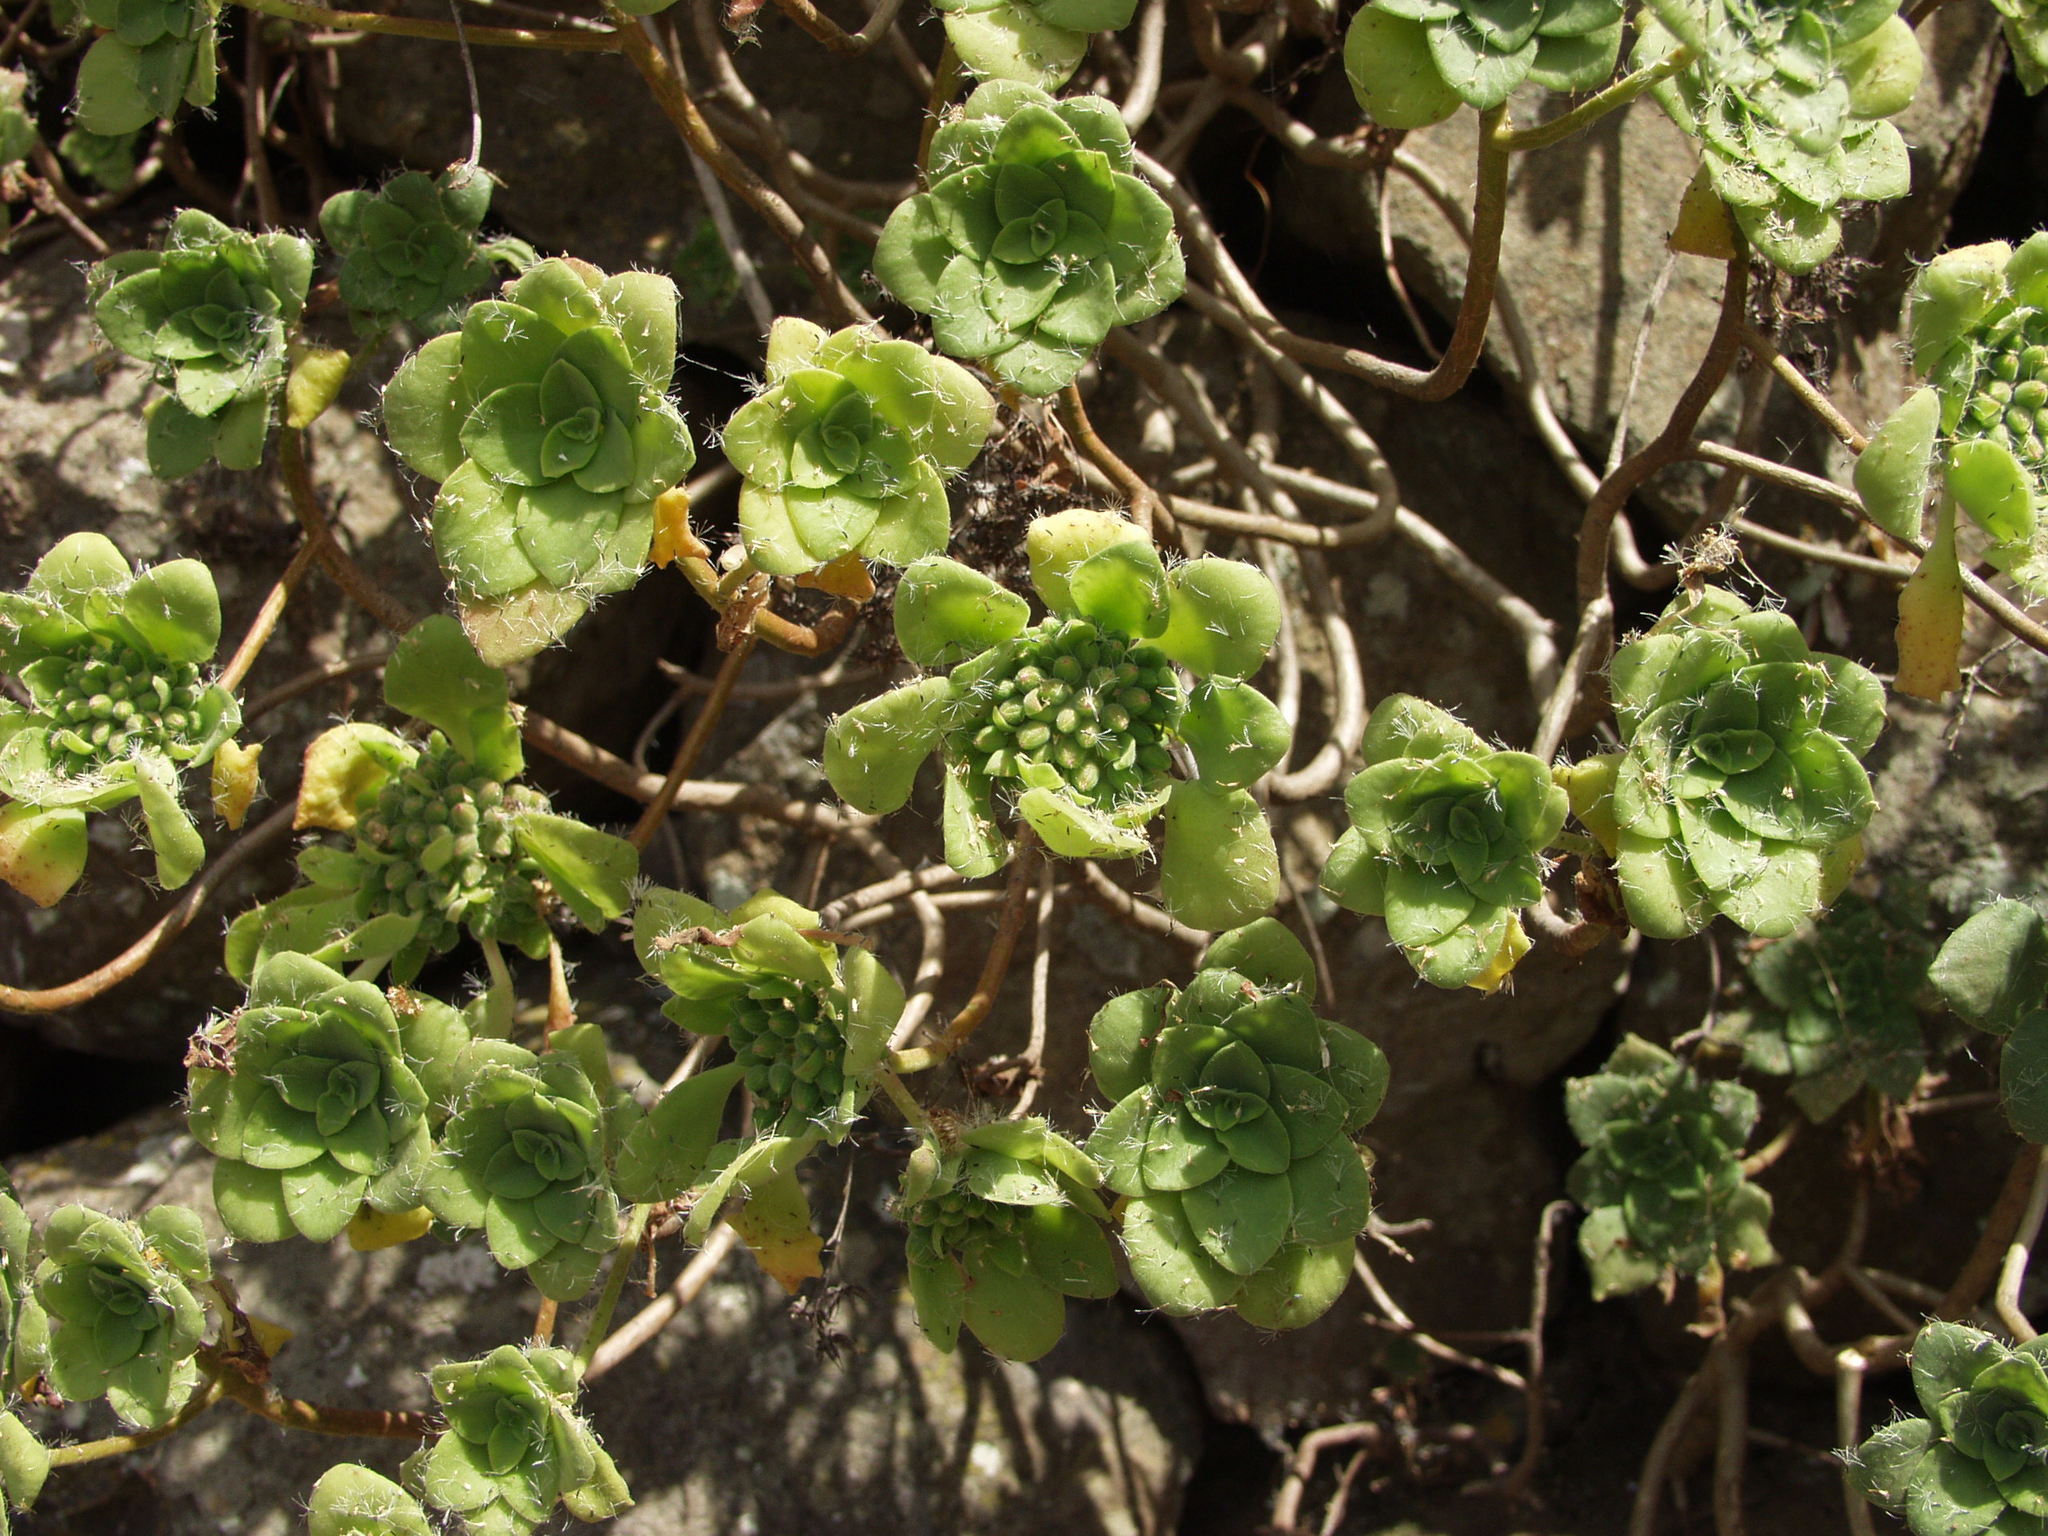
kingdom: Plantae
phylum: Tracheophyta
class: Magnoliopsida
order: Saxifragales
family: Crassulaceae
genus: Aeonium
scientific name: Aeonium goochiae
